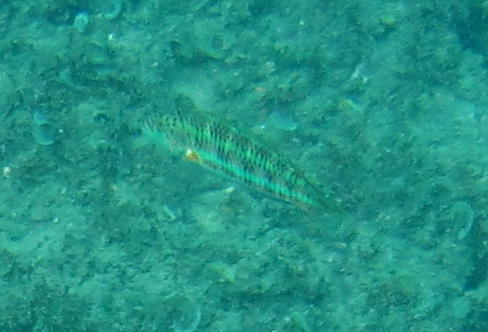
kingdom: Animalia
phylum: Chordata
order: Perciformes
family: Labridae
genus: Thalassoma
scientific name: Thalassoma trilobatum
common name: Christmas wrasse
